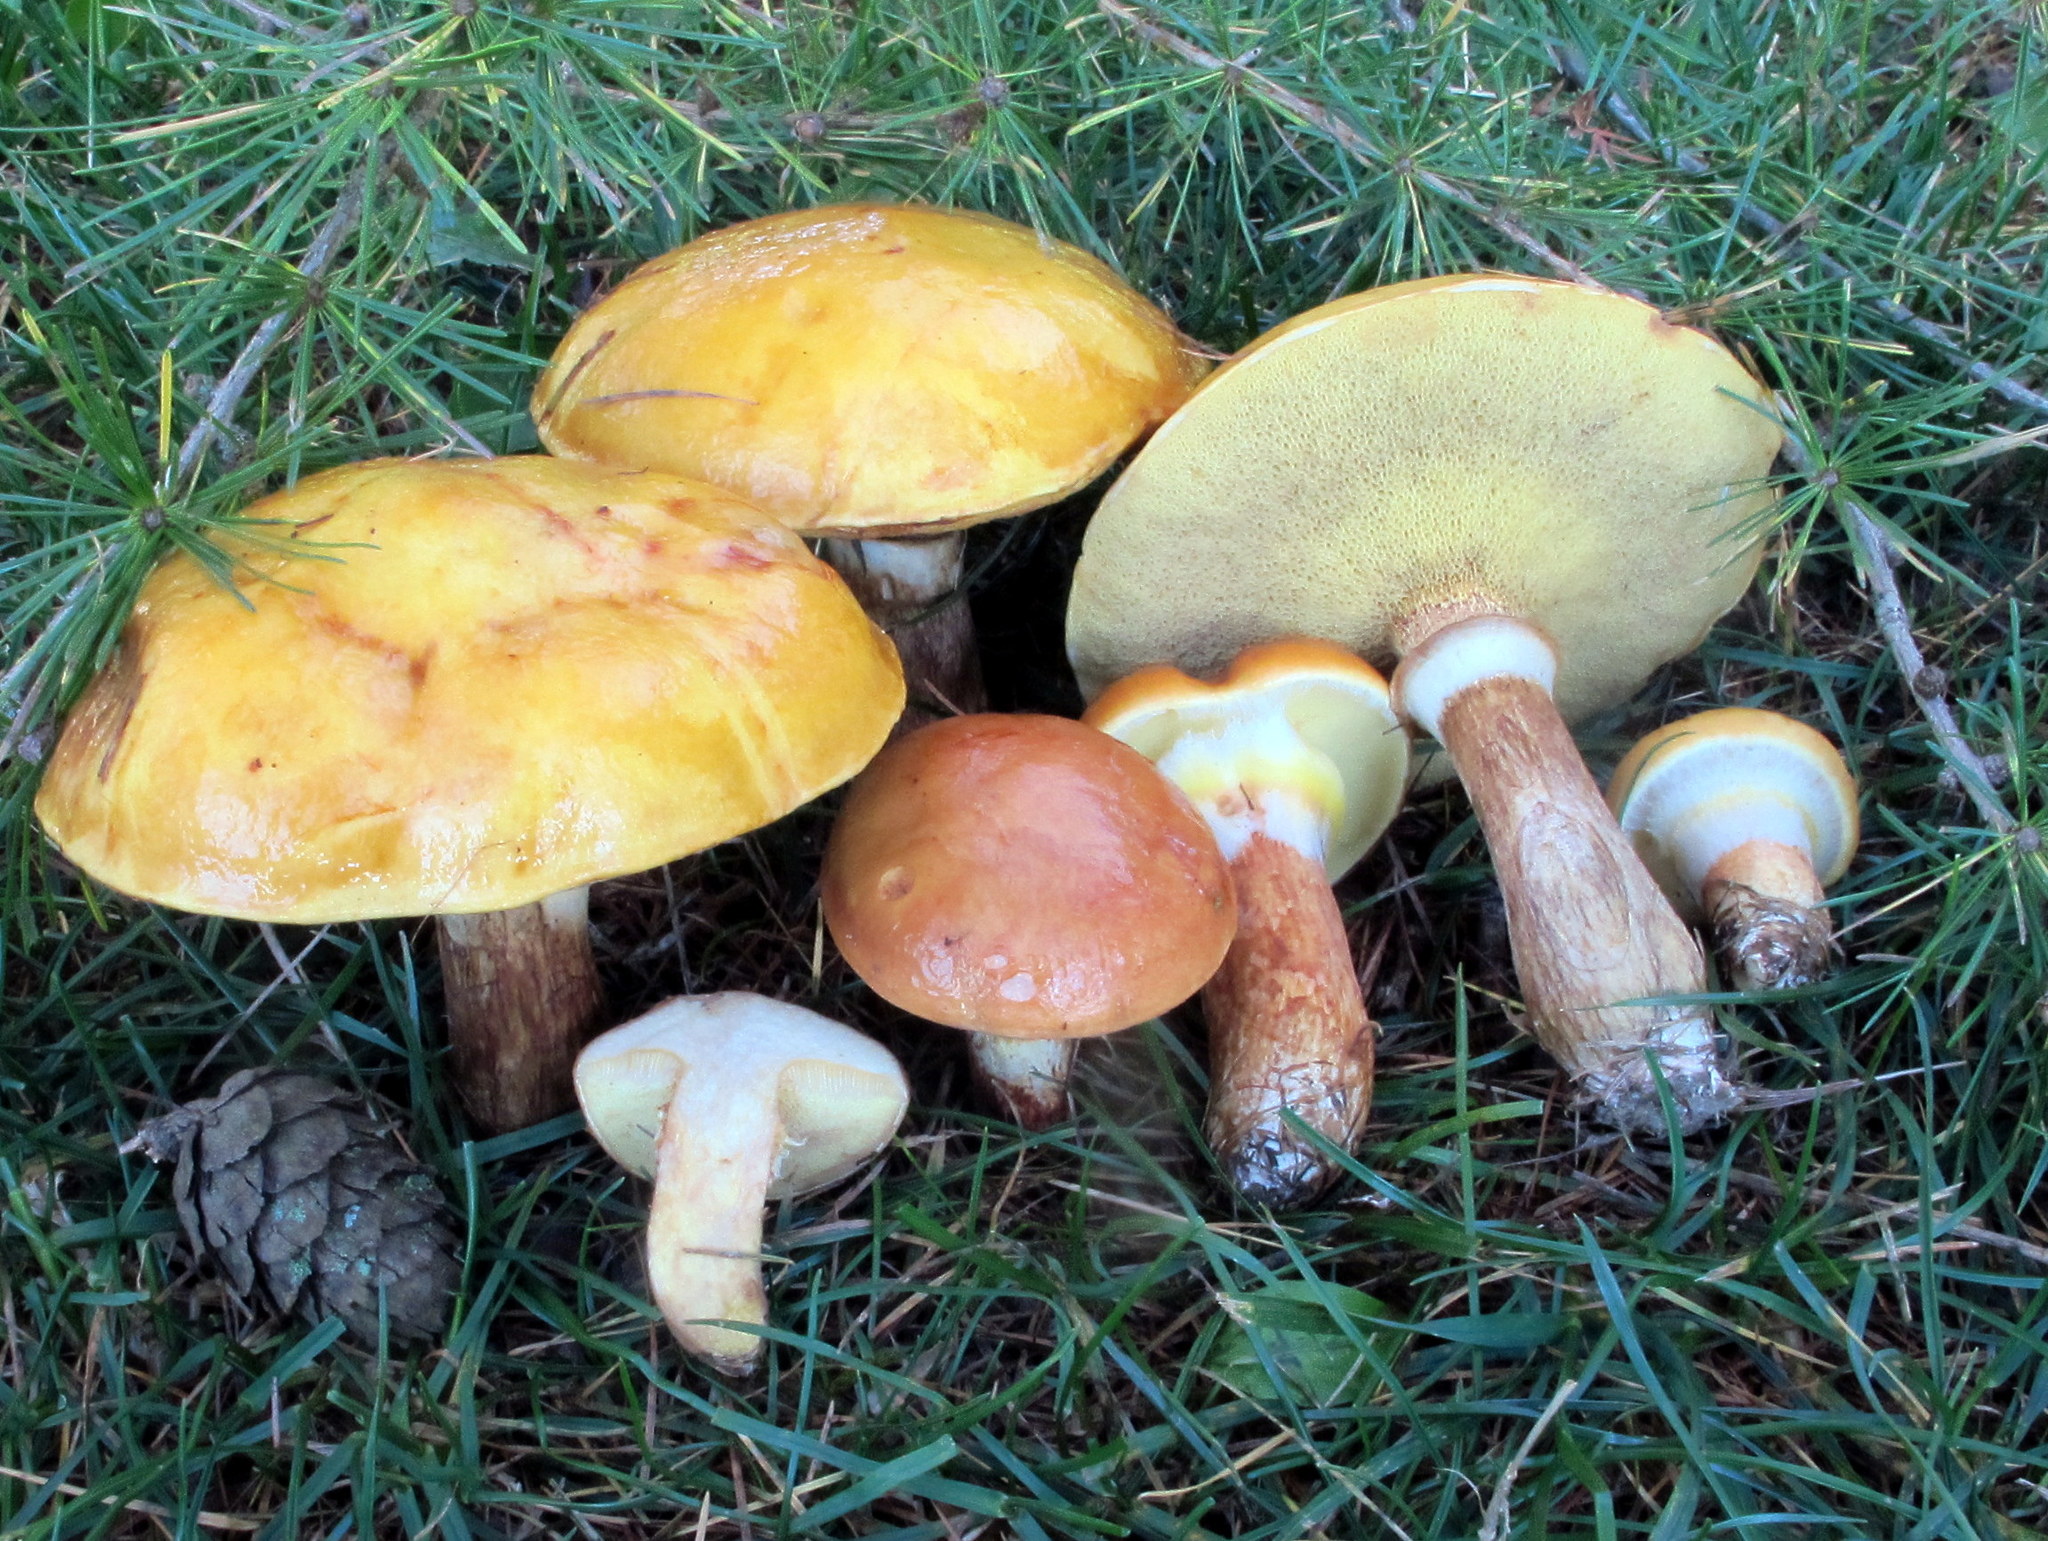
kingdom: Fungi
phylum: Basidiomycota
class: Agaricomycetes
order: Boletales
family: Suillaceae
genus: Suillus
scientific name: Suillus grevillei
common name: Larch bolete
